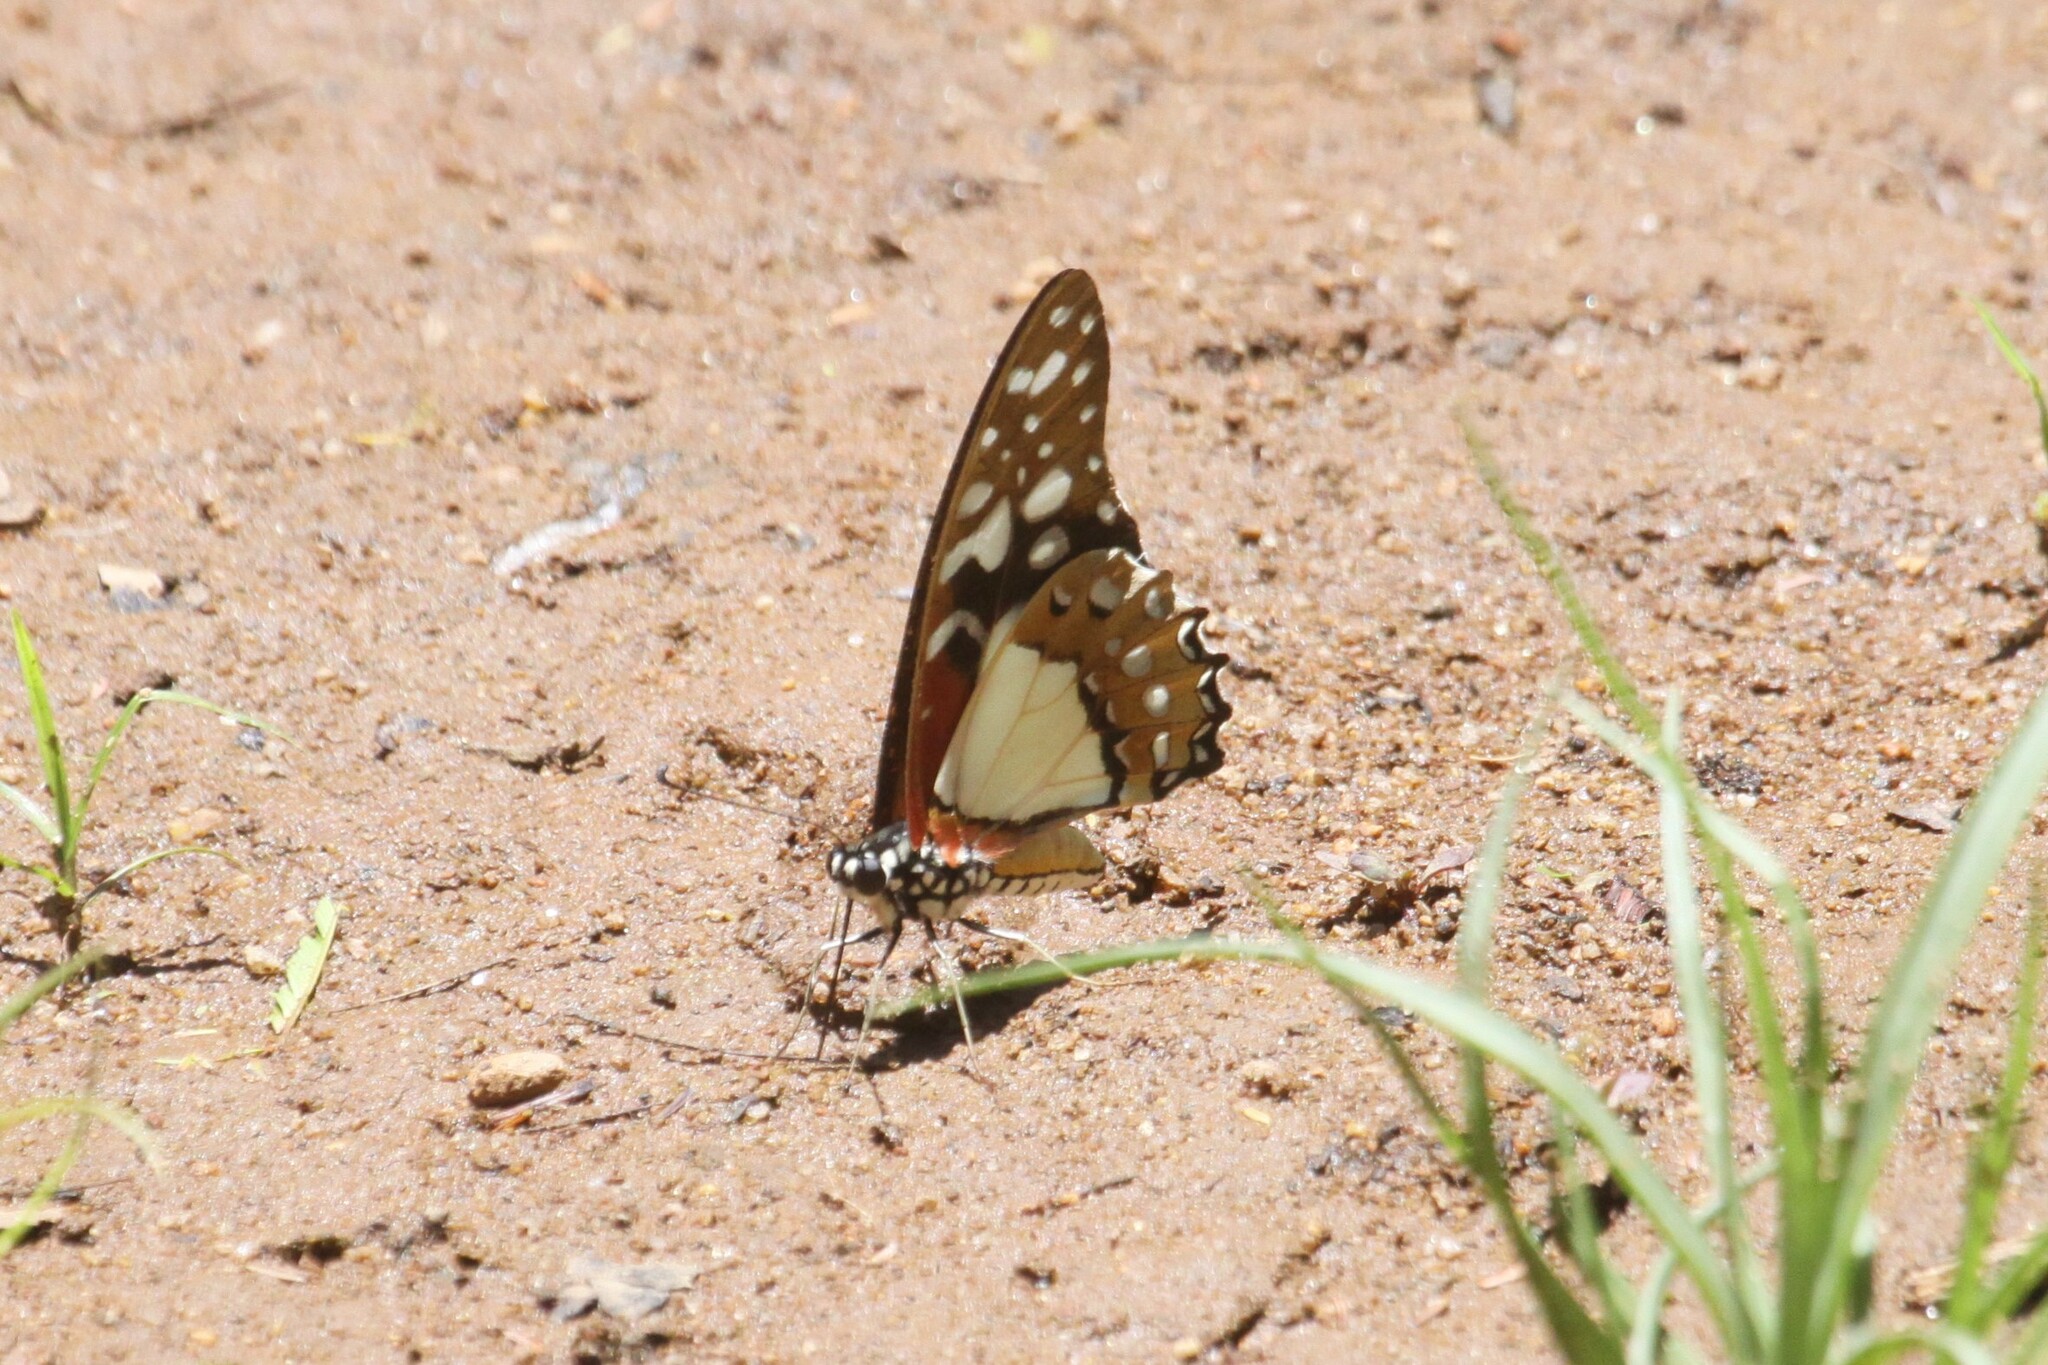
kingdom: Animalia
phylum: Arthropoda
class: Insecta
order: Lepidoptera
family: Papilionidae
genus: Graphium
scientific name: Graphium angolanus
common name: Angola white-lady swordtail
